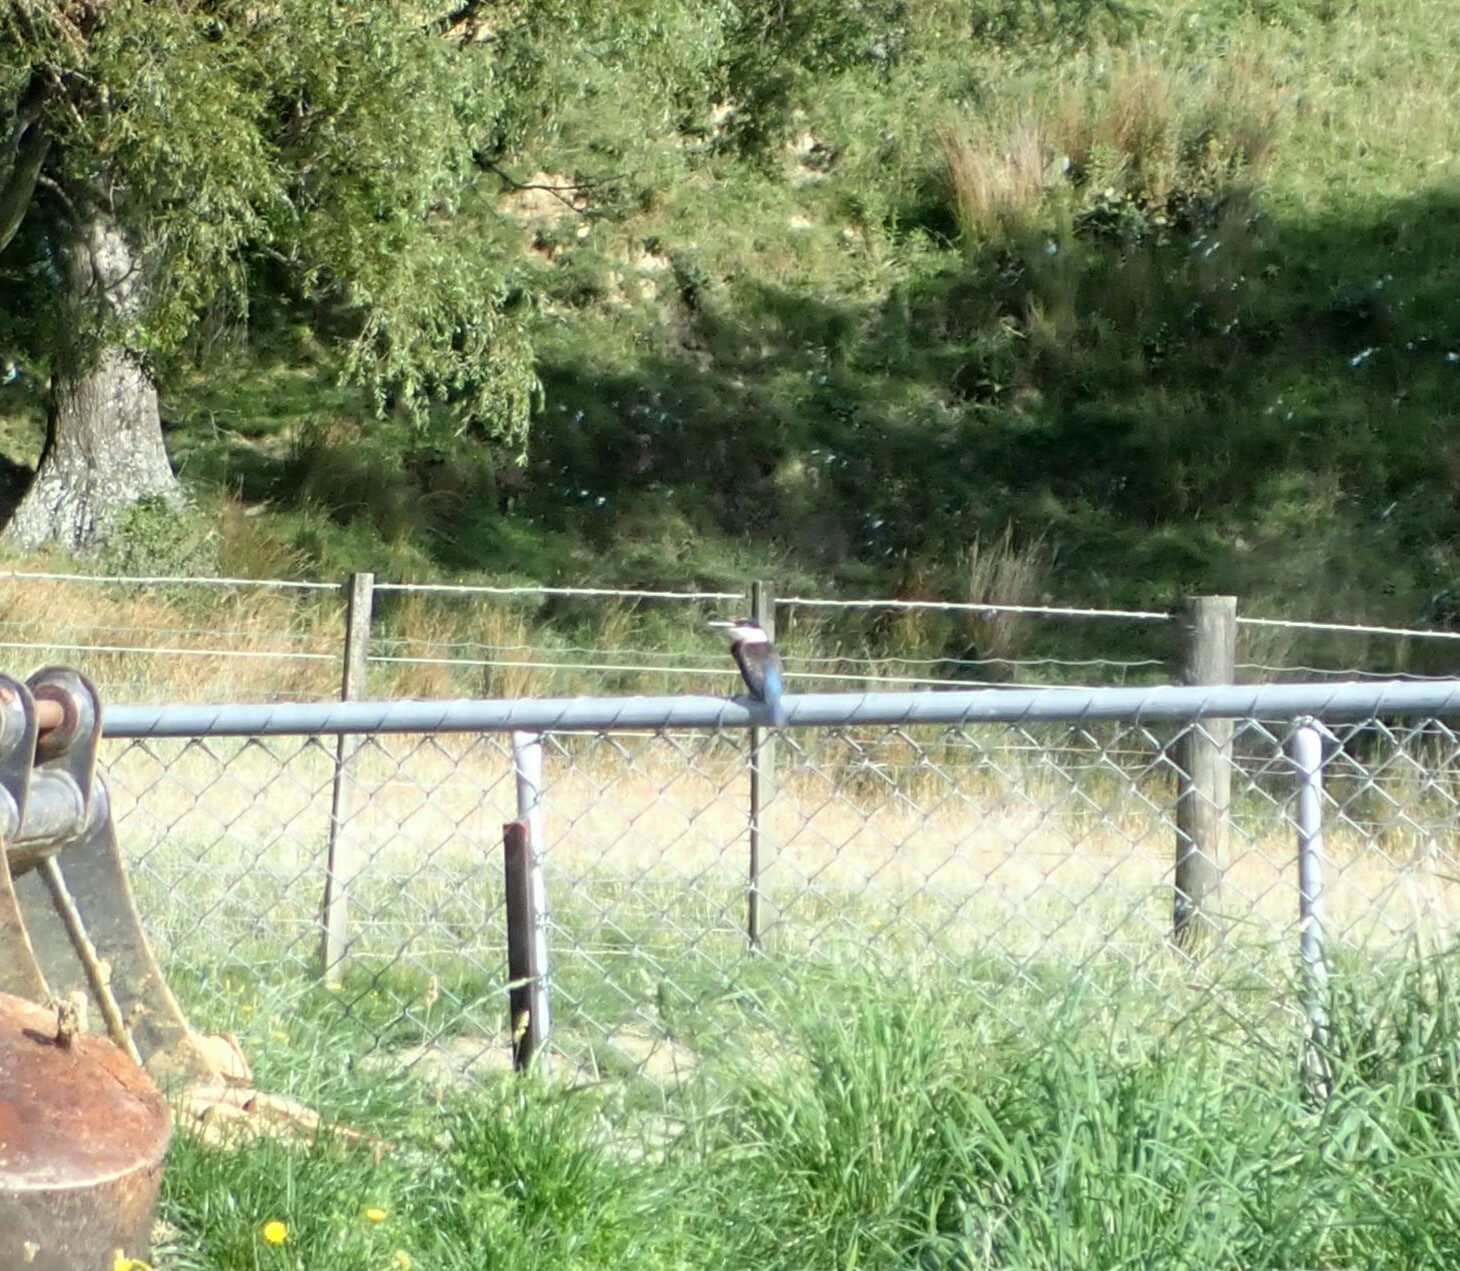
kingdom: Animalia
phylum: Chordata
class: Aves
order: Coraciiformes
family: Alcedinidae
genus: Todiramphus
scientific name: Todiramphus sanctus
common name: Sacred kingfisher
